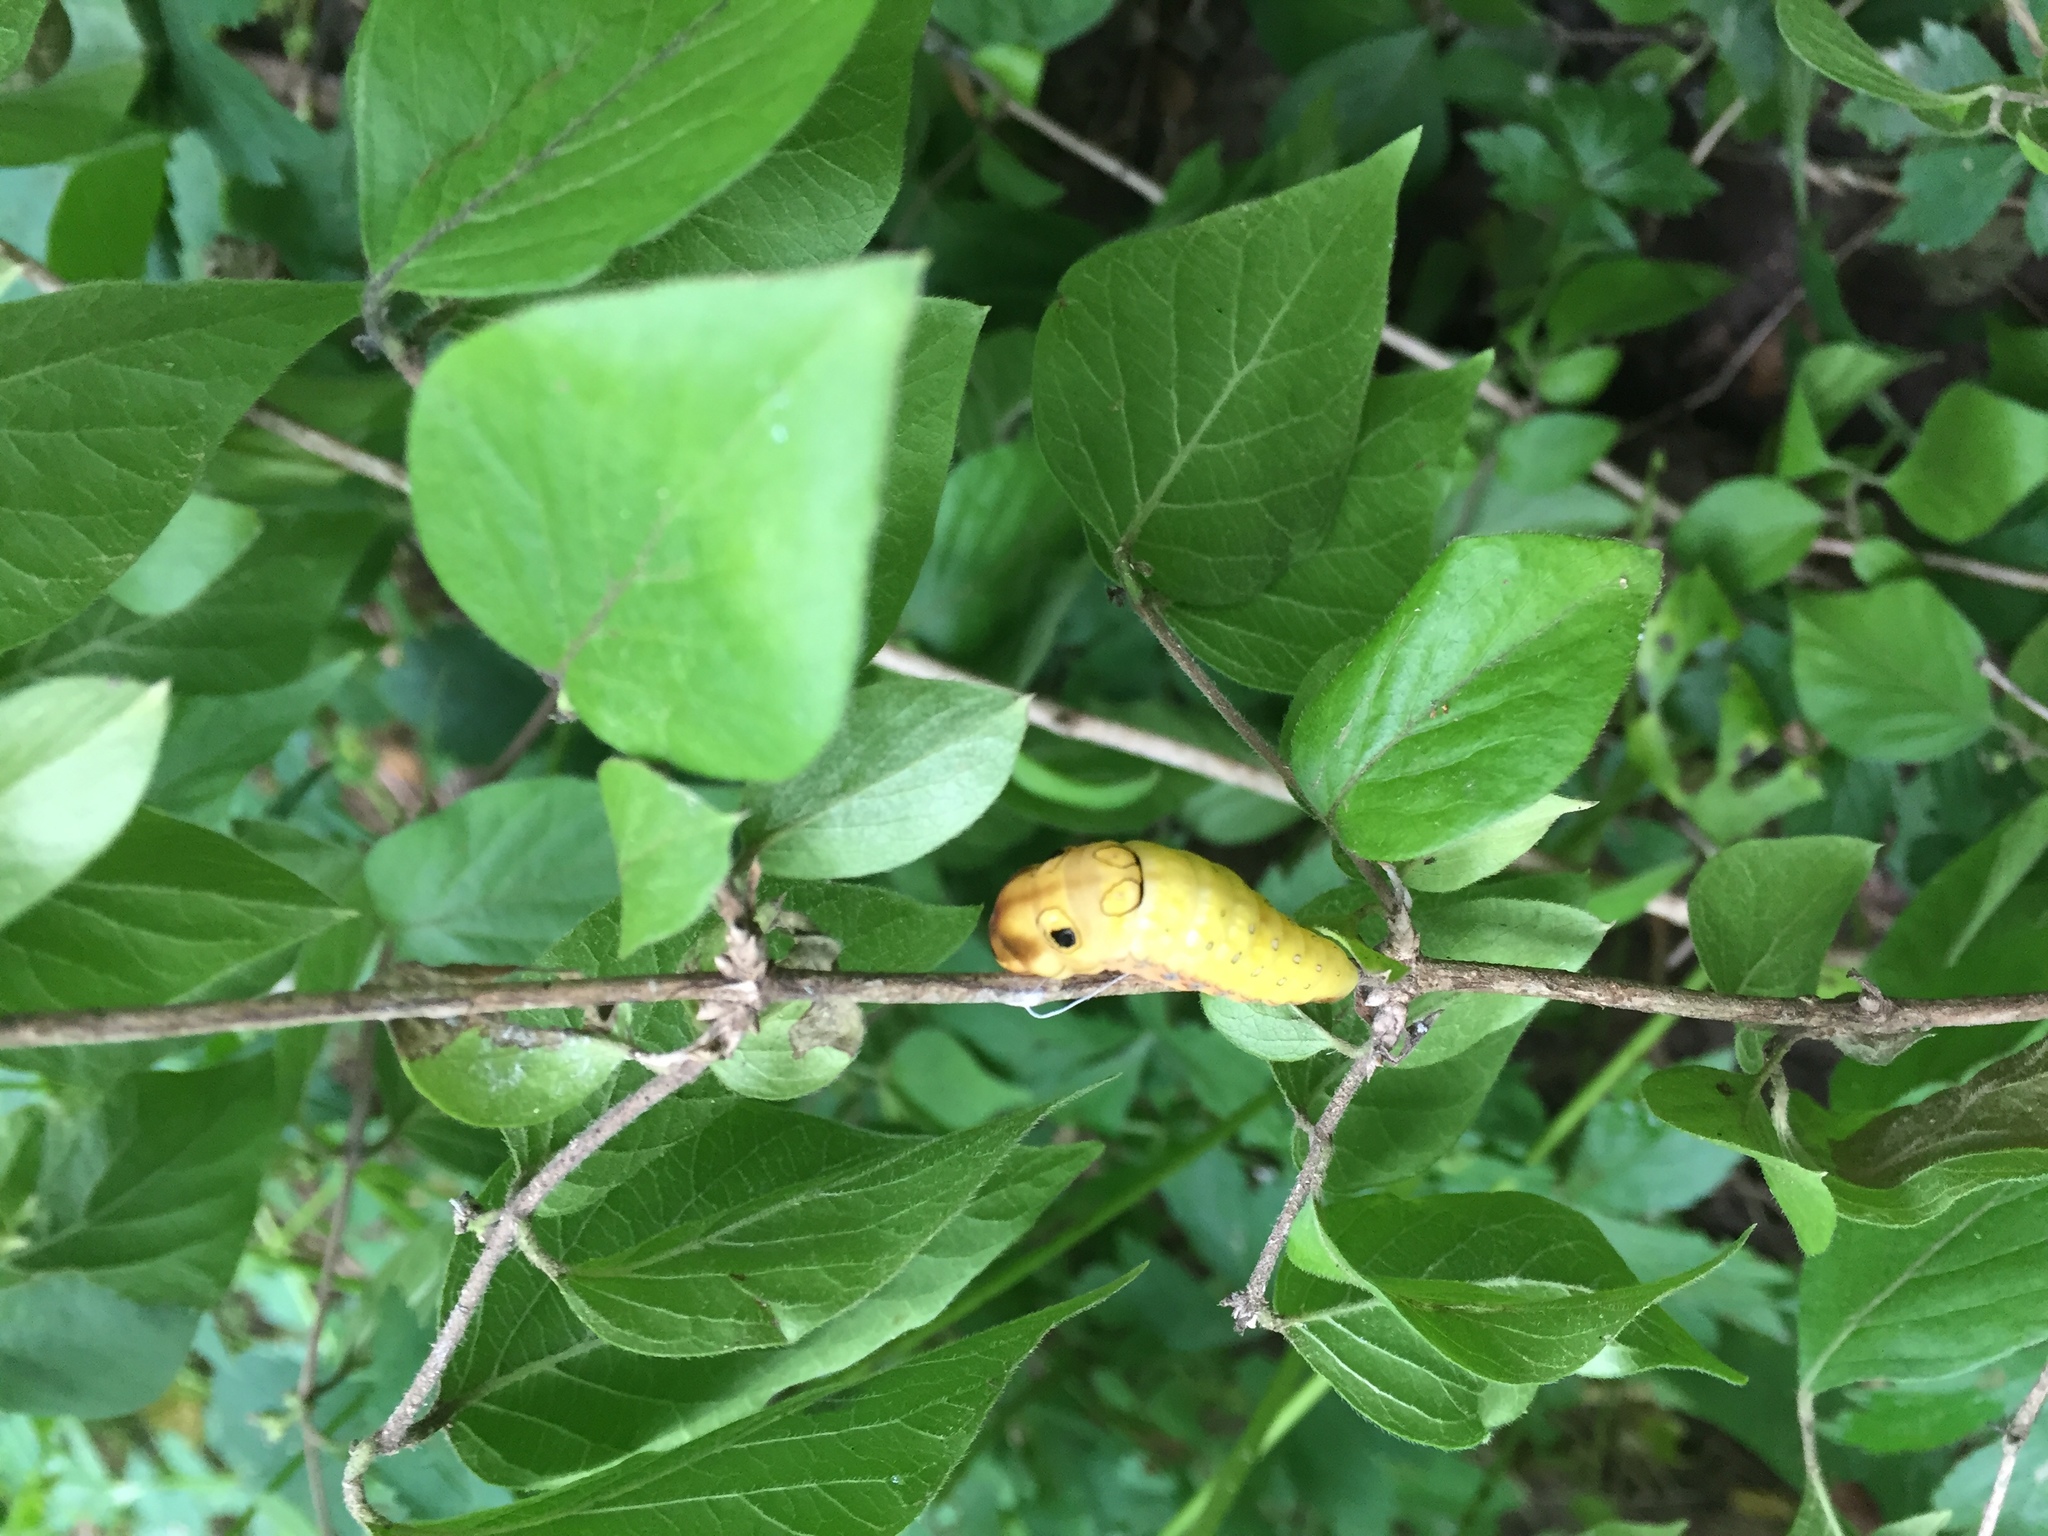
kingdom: Animalia
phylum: Arthropoda
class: Insecta
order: Lepidoptera
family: Papilionidae
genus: Papilio
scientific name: Papilio troilus
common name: Spicebush swallowtail
